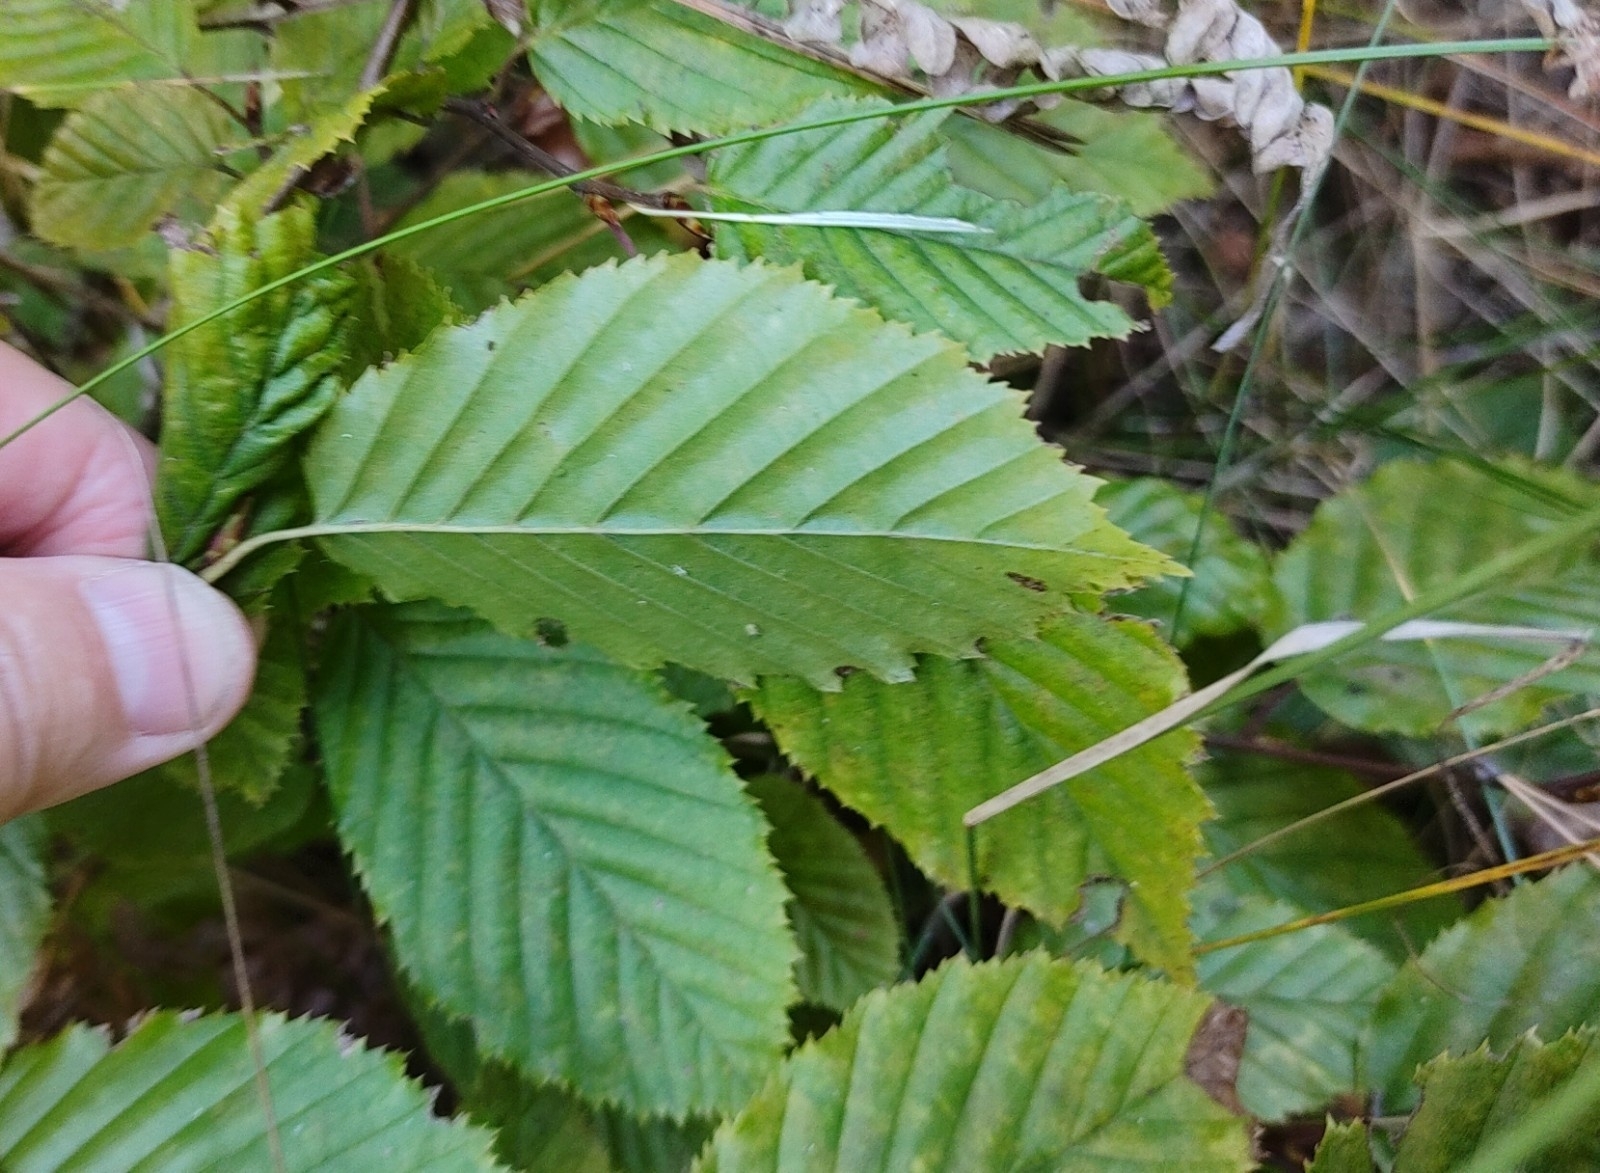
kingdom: Plantae
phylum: Tracheophyta
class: Magnoliopsida
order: Fagales
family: Betulaceae
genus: Carpinus
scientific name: Carpinus betulus
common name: Hornbeam
